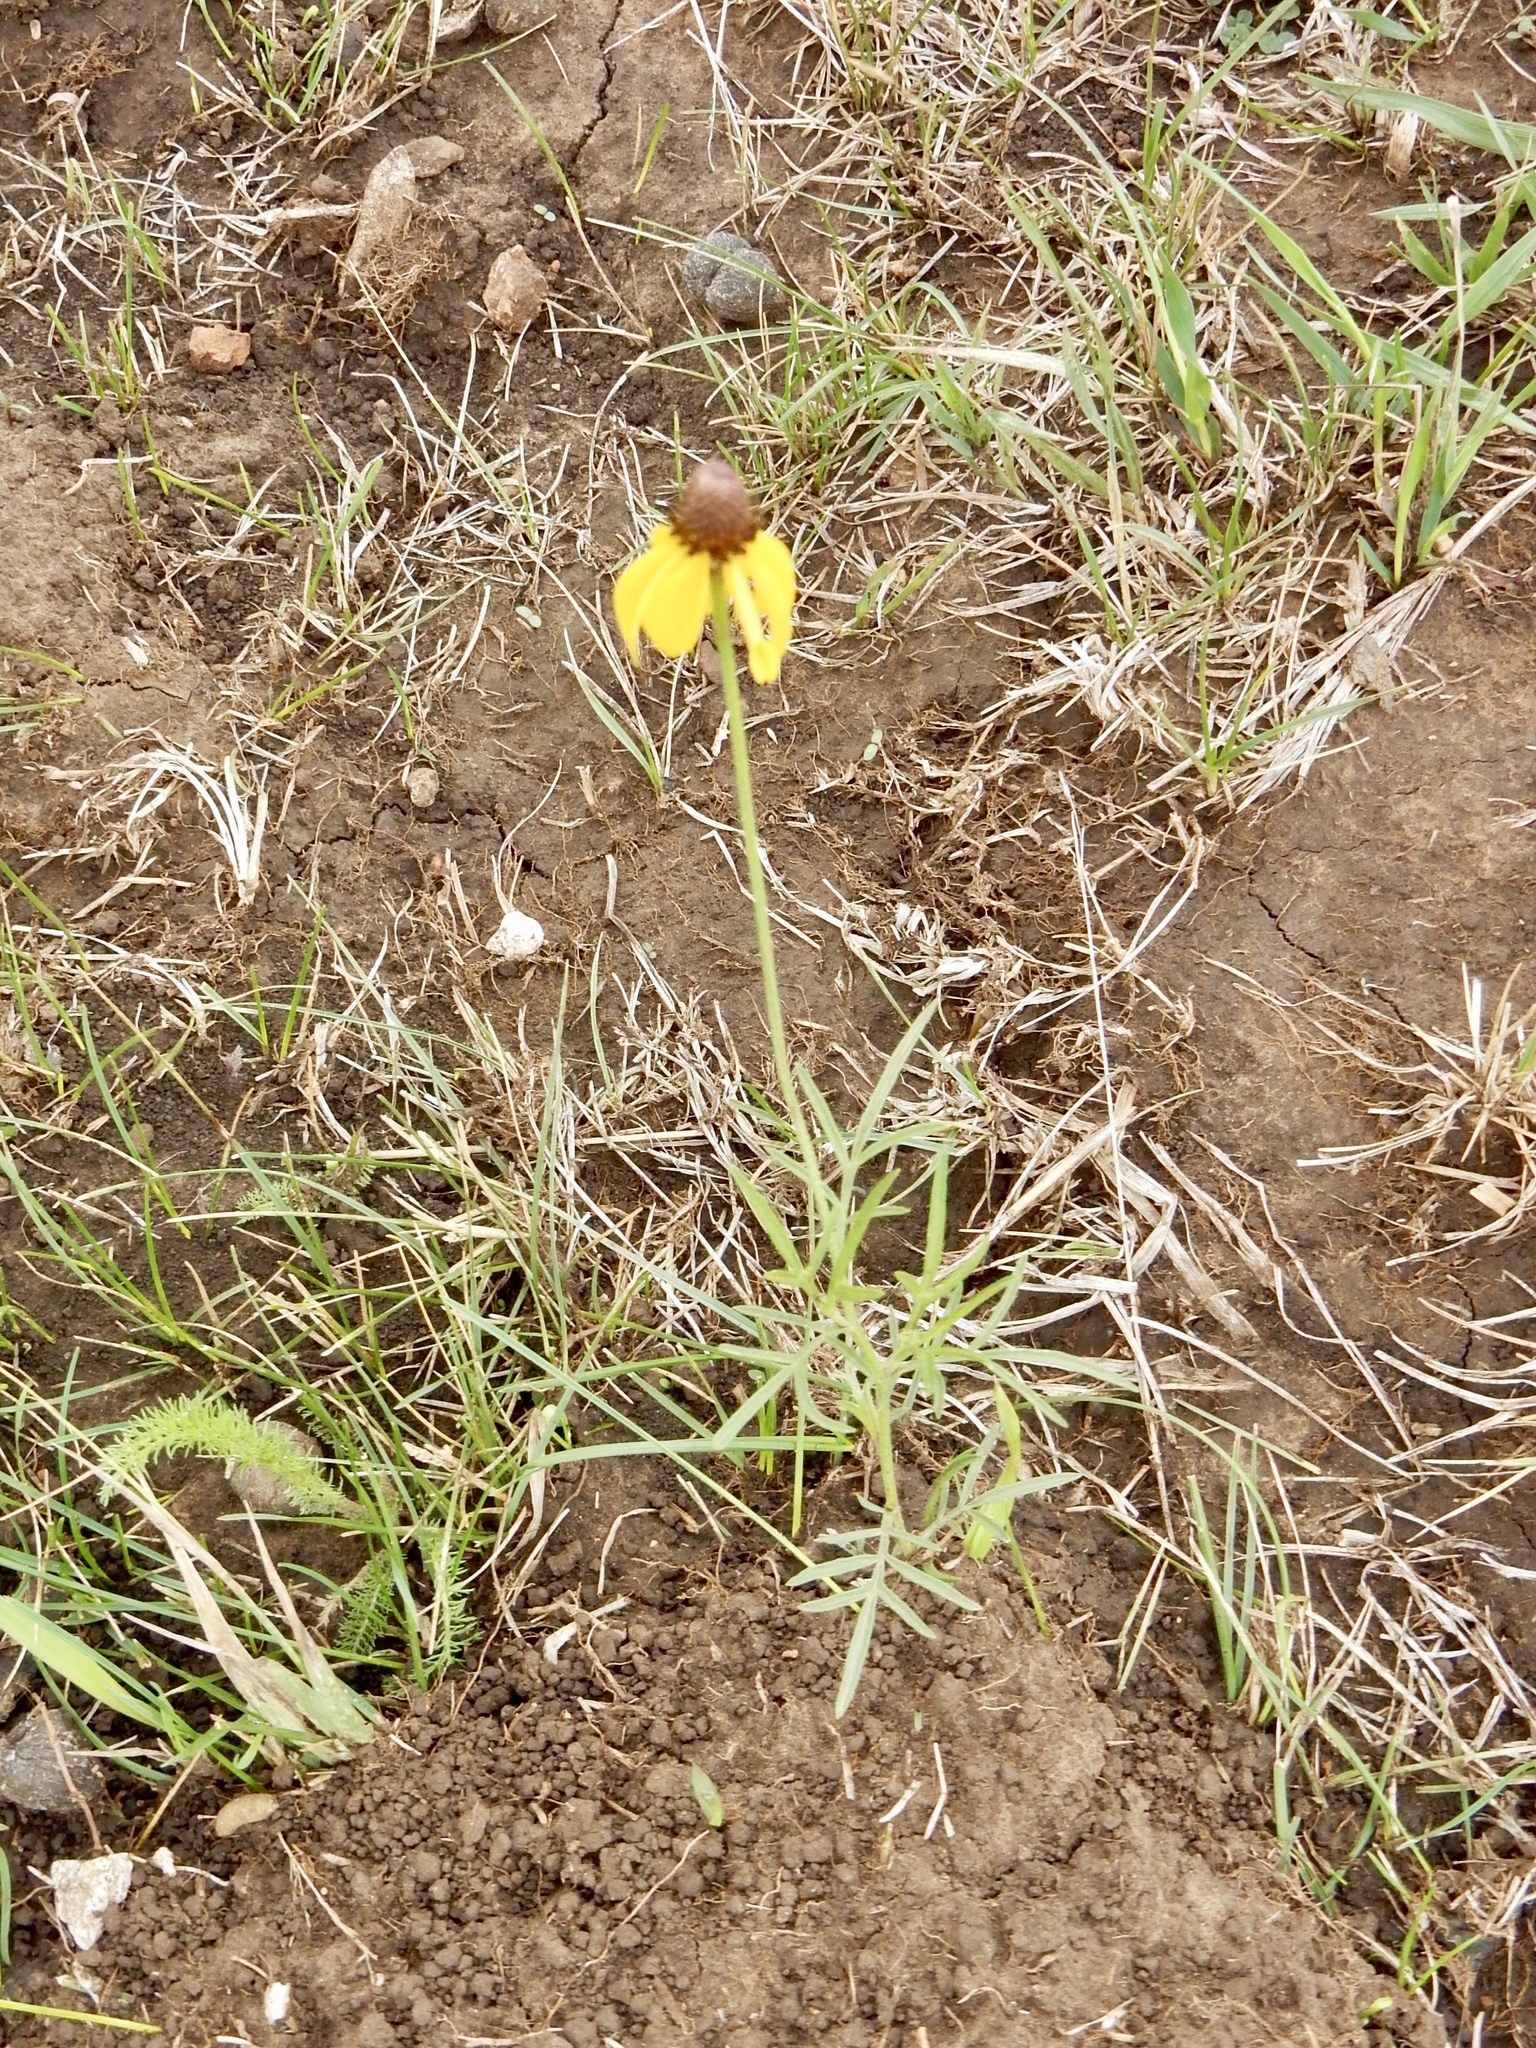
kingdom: Plantae
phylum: Tracheophyta
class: Magnoliopsida
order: Asterales
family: Asteraceae
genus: Ratibida
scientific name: Ratibida columnifera
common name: Prairie coneflower
